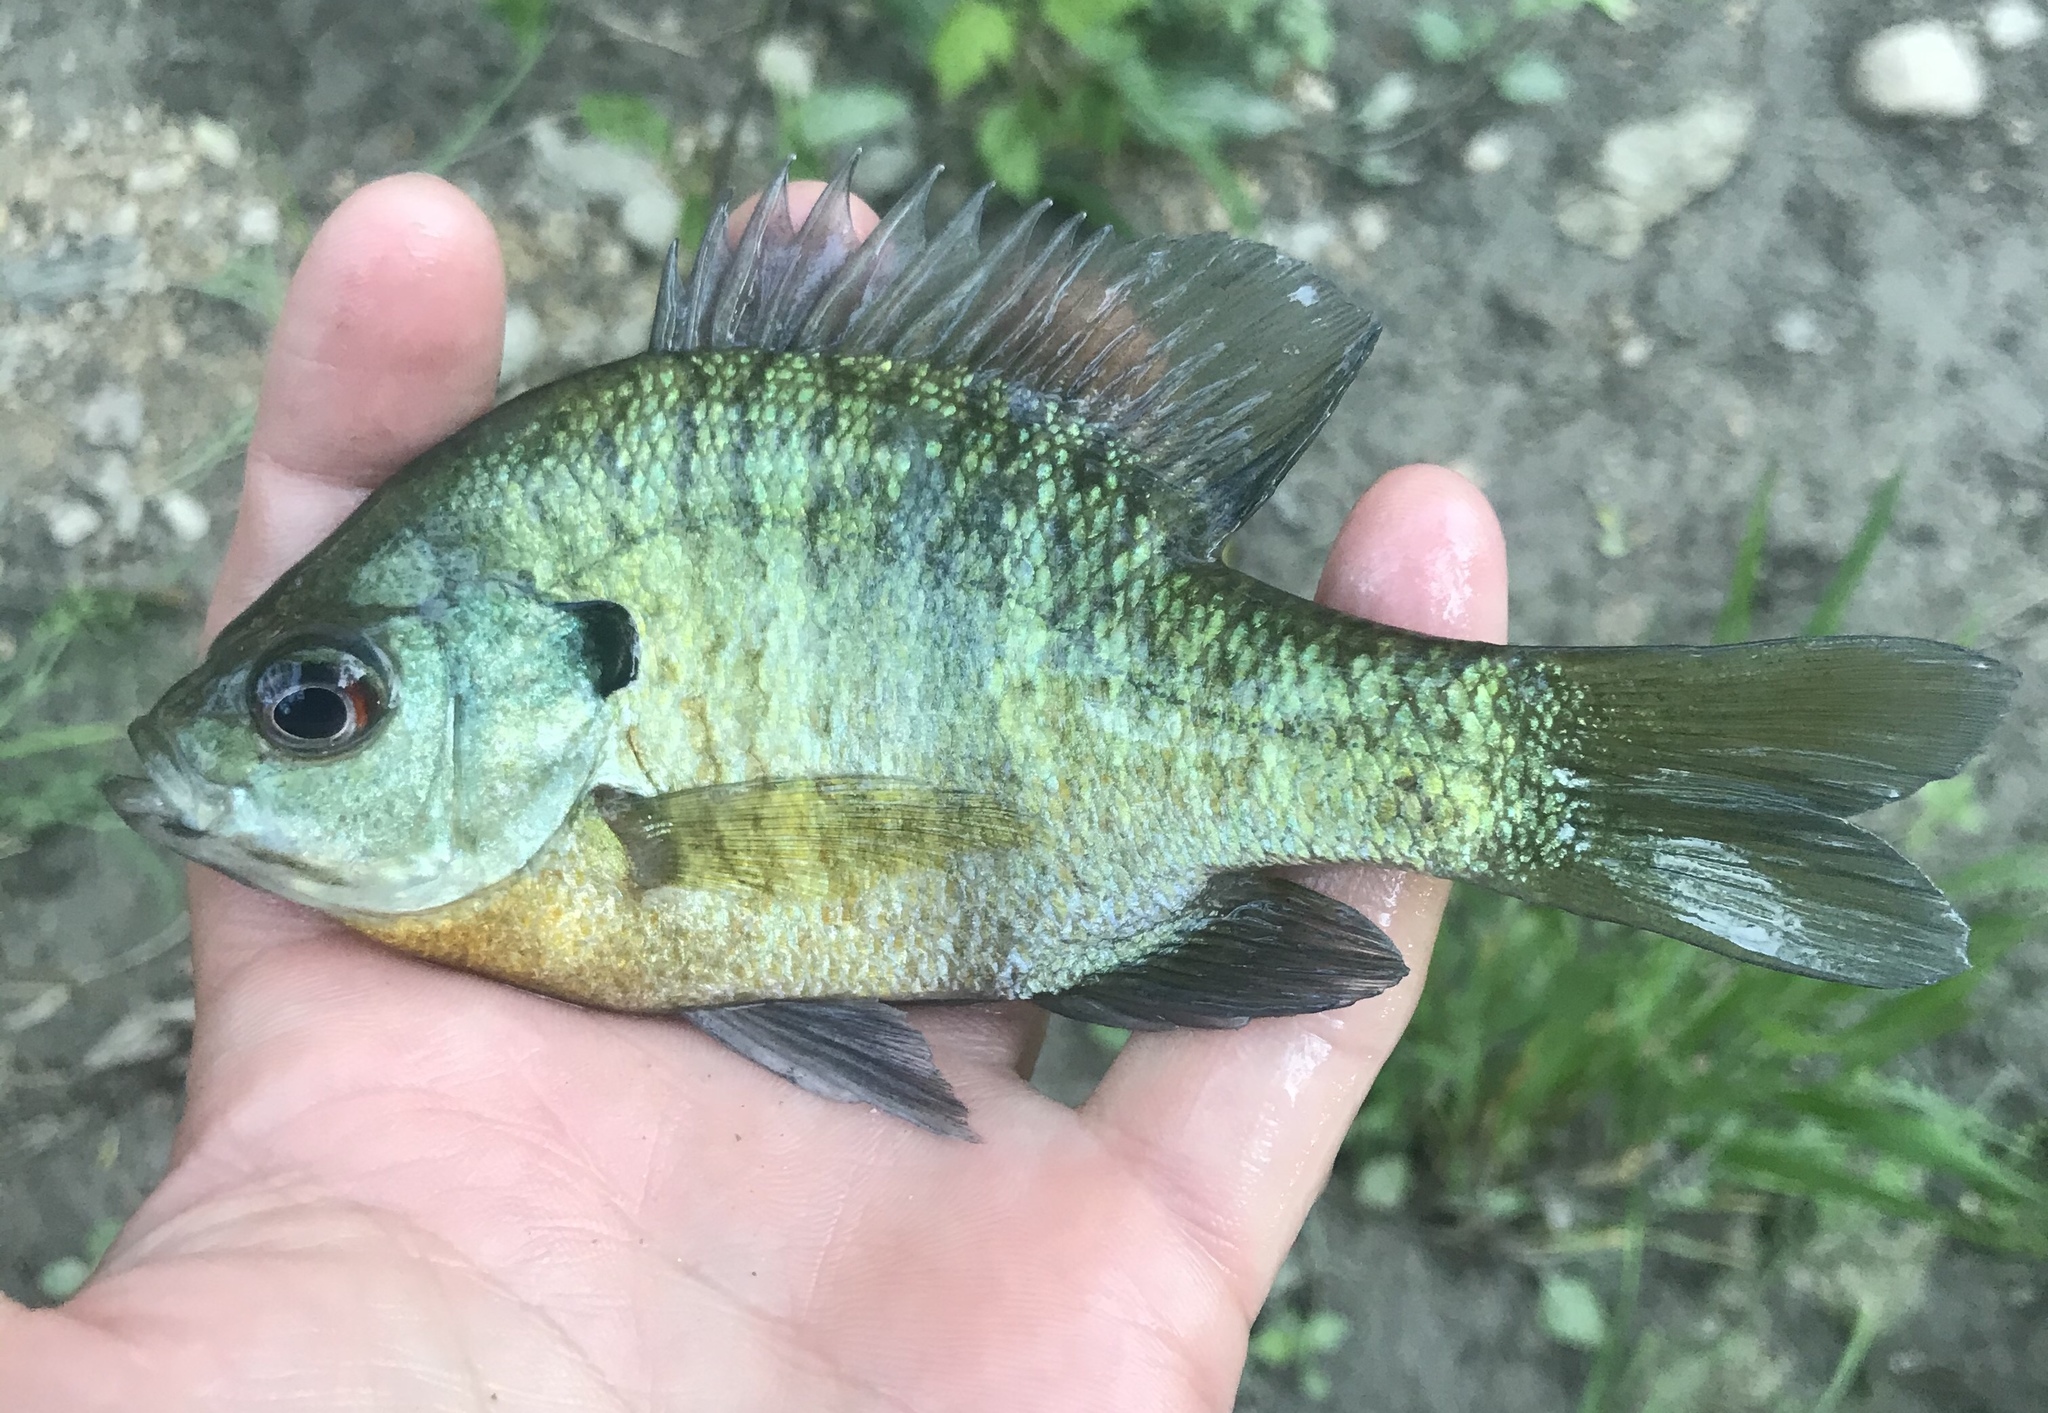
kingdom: Animalia
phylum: Chordata
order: Perciformes
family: Centrarchidae
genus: Lepomis
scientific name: Lepomis macrochirus
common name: Bluegill
